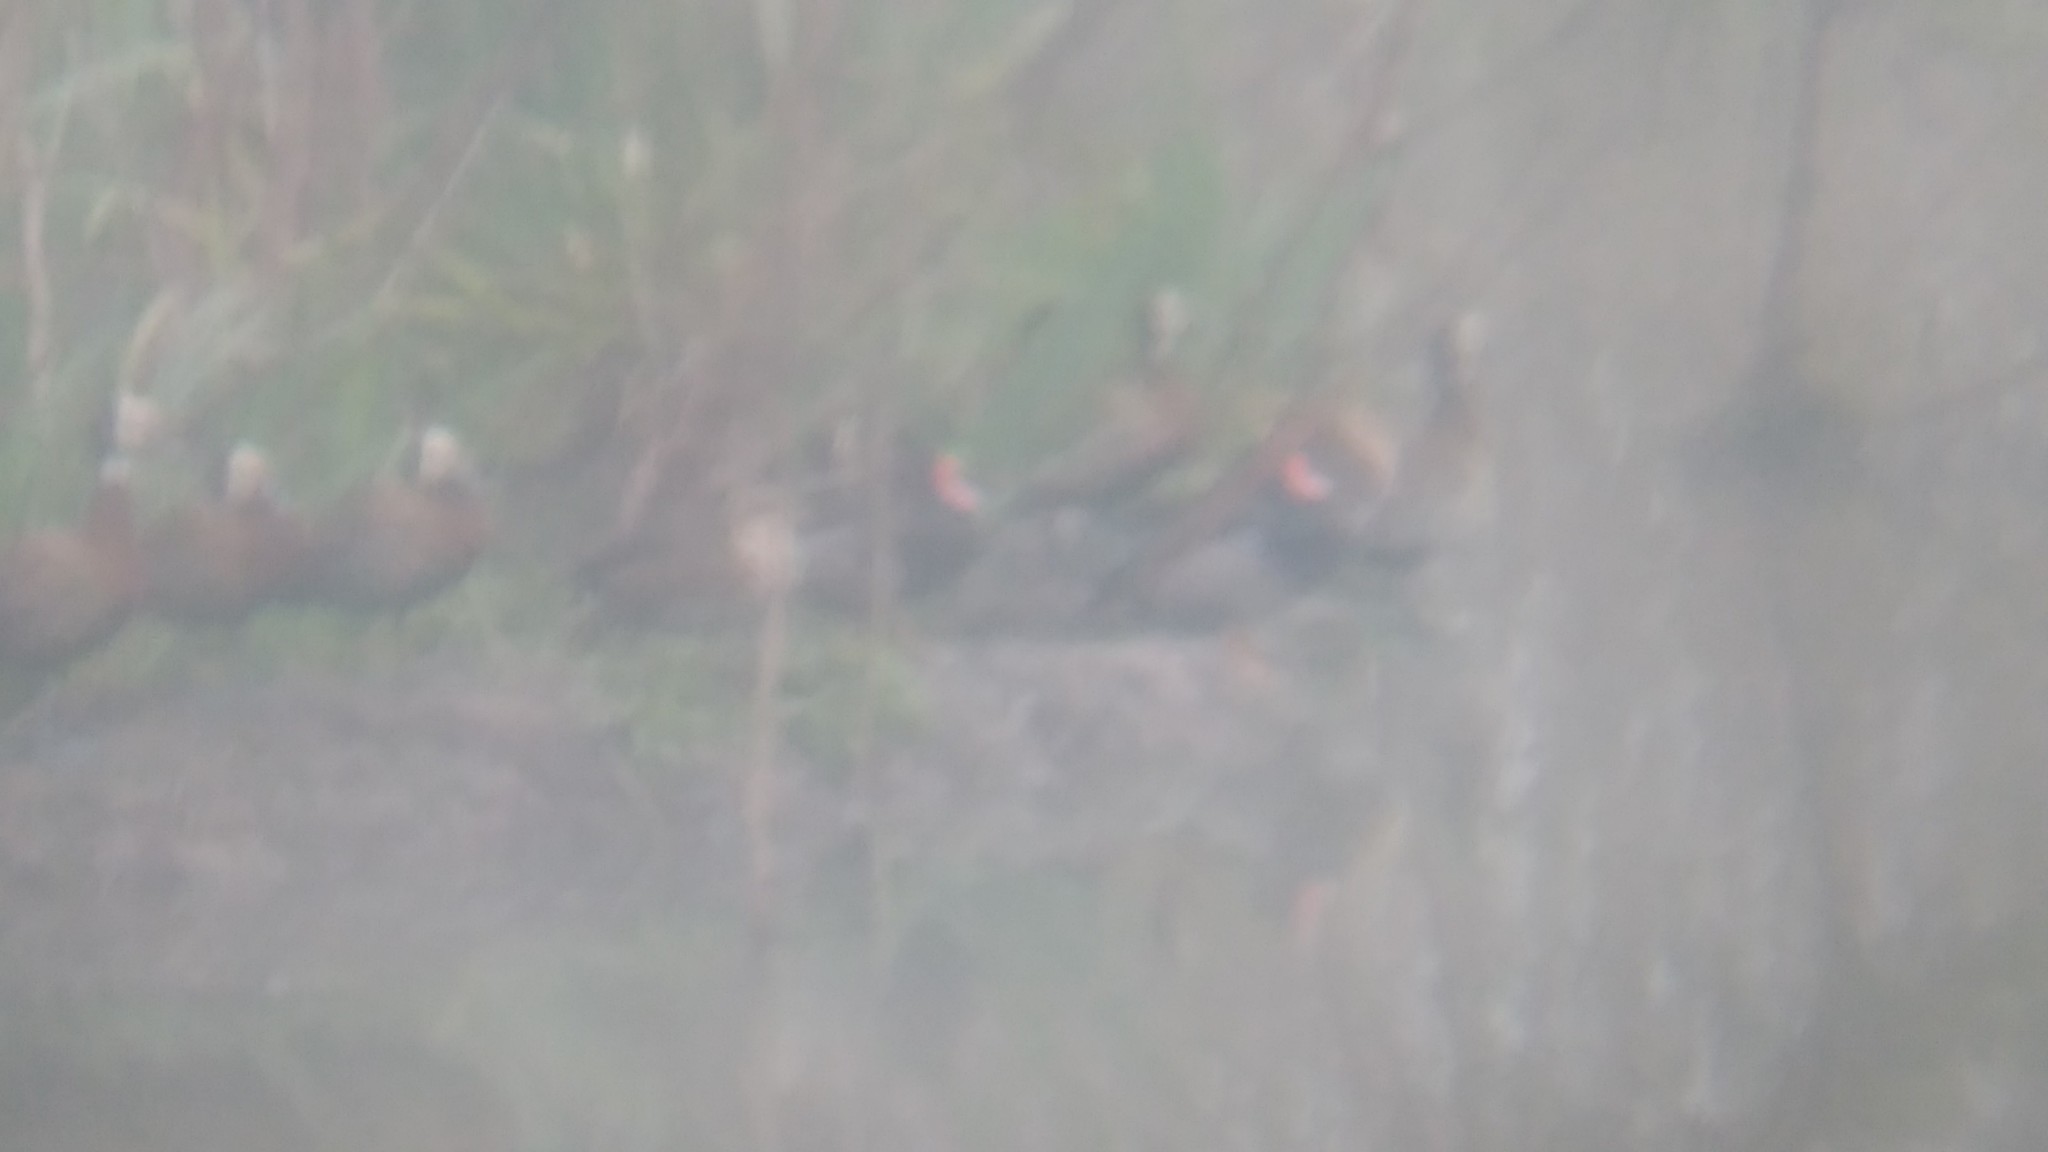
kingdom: Animalia
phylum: Chordata
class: Aves
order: Anseriformes
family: Anatidae
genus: Netta
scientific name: Netta peposaca
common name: Rosy-billed pochard
